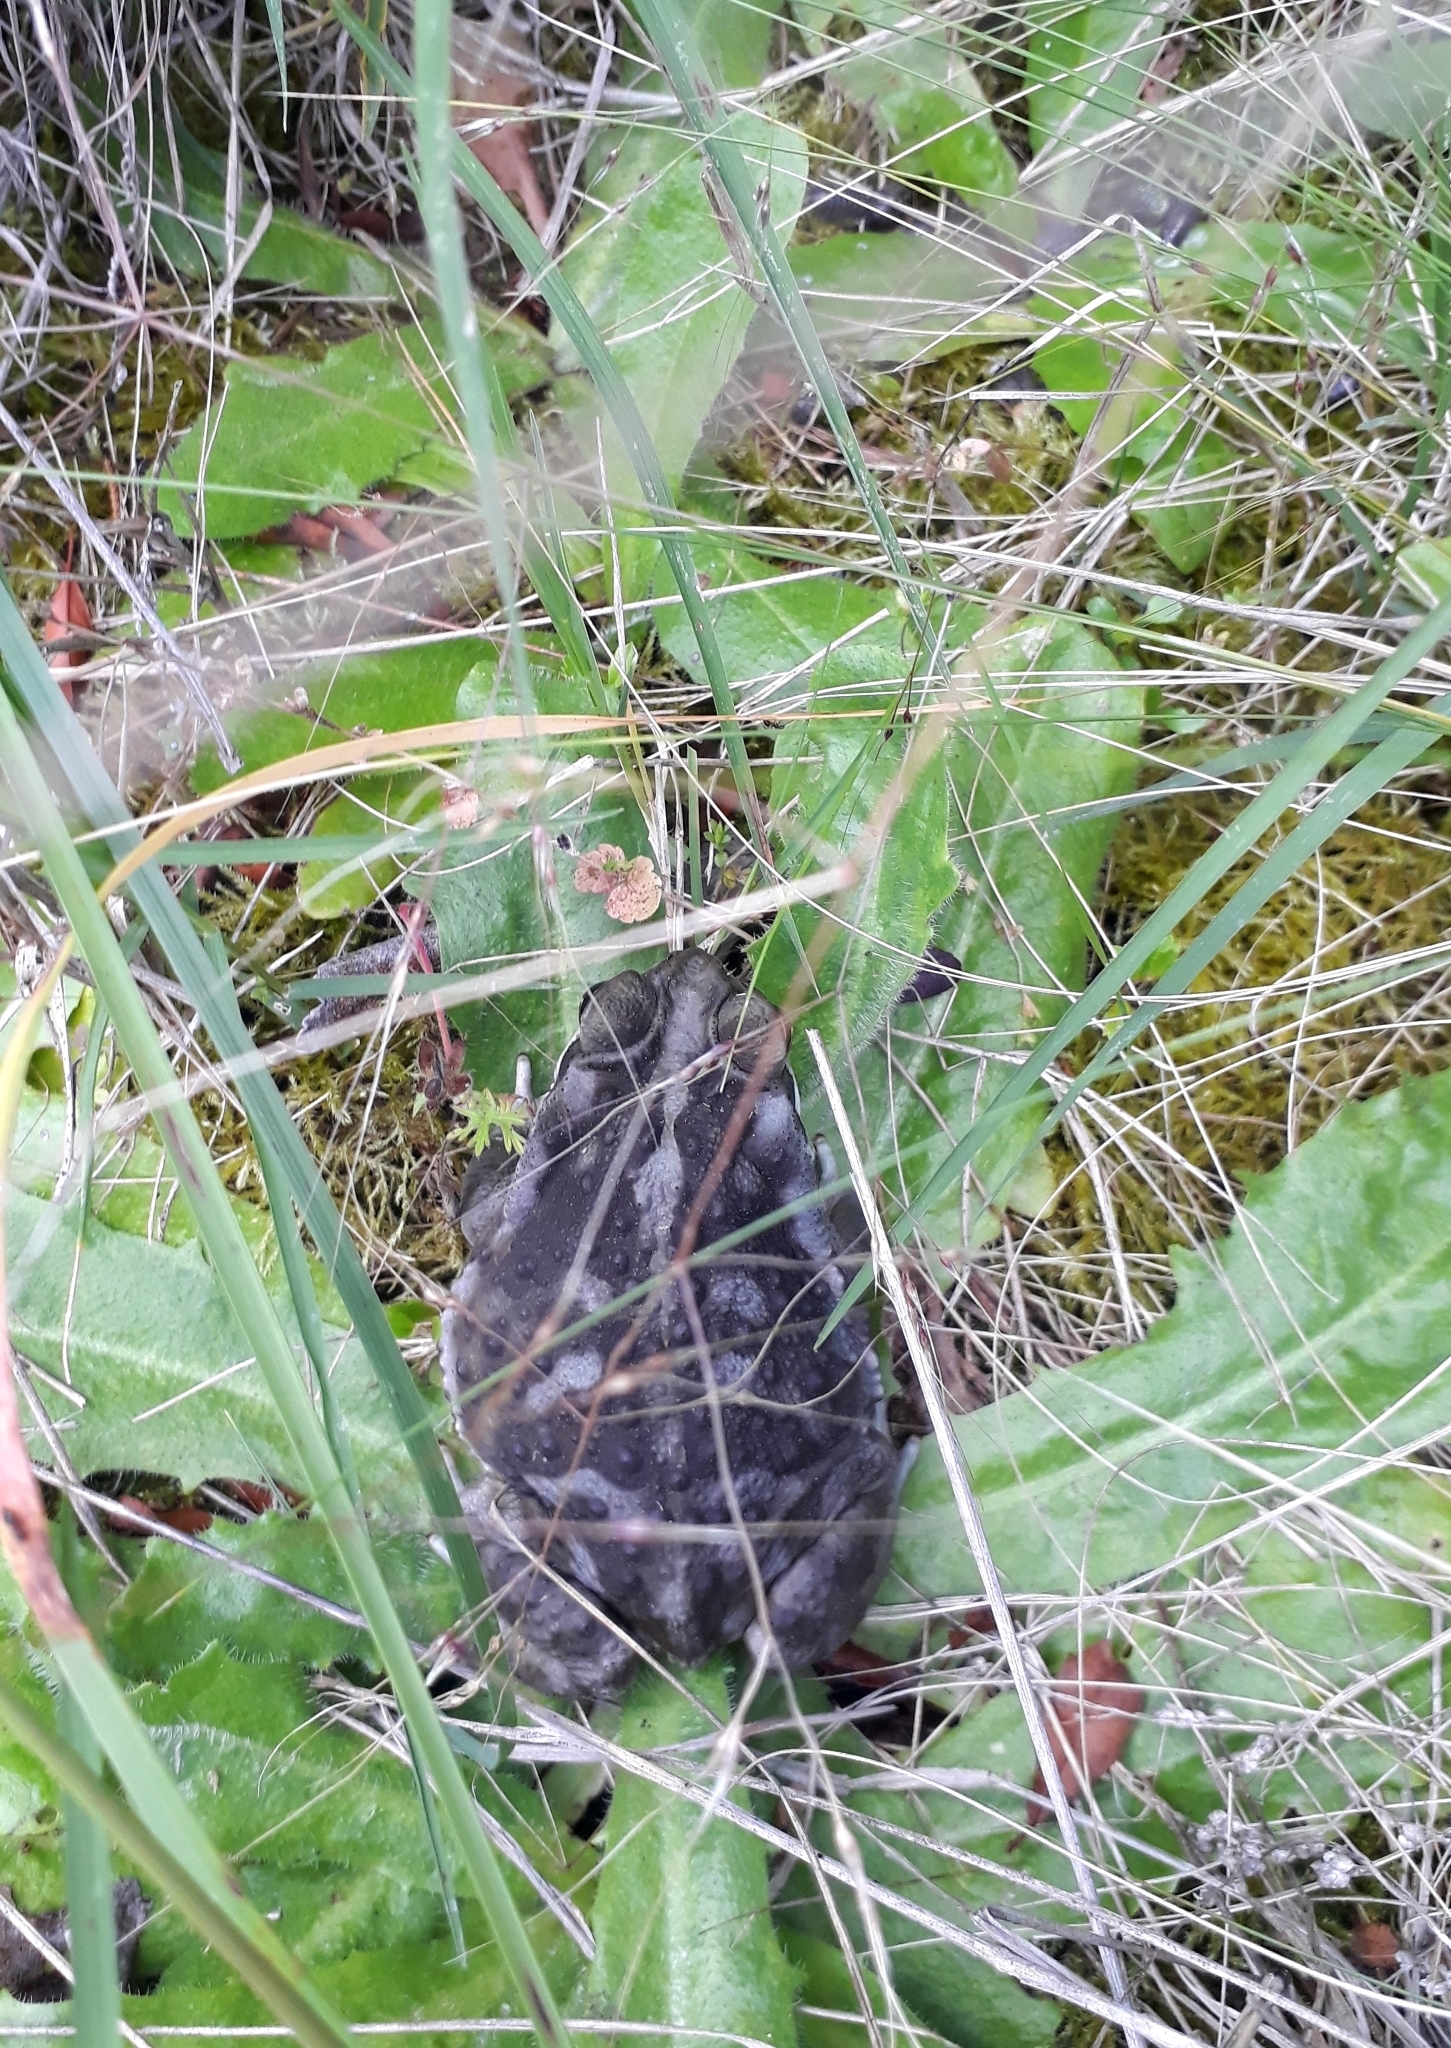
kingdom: Animalia
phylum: Chordata
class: Amphibia
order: Anura
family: Bufonidae
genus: Rhinella
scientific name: Rhinella arenarum
